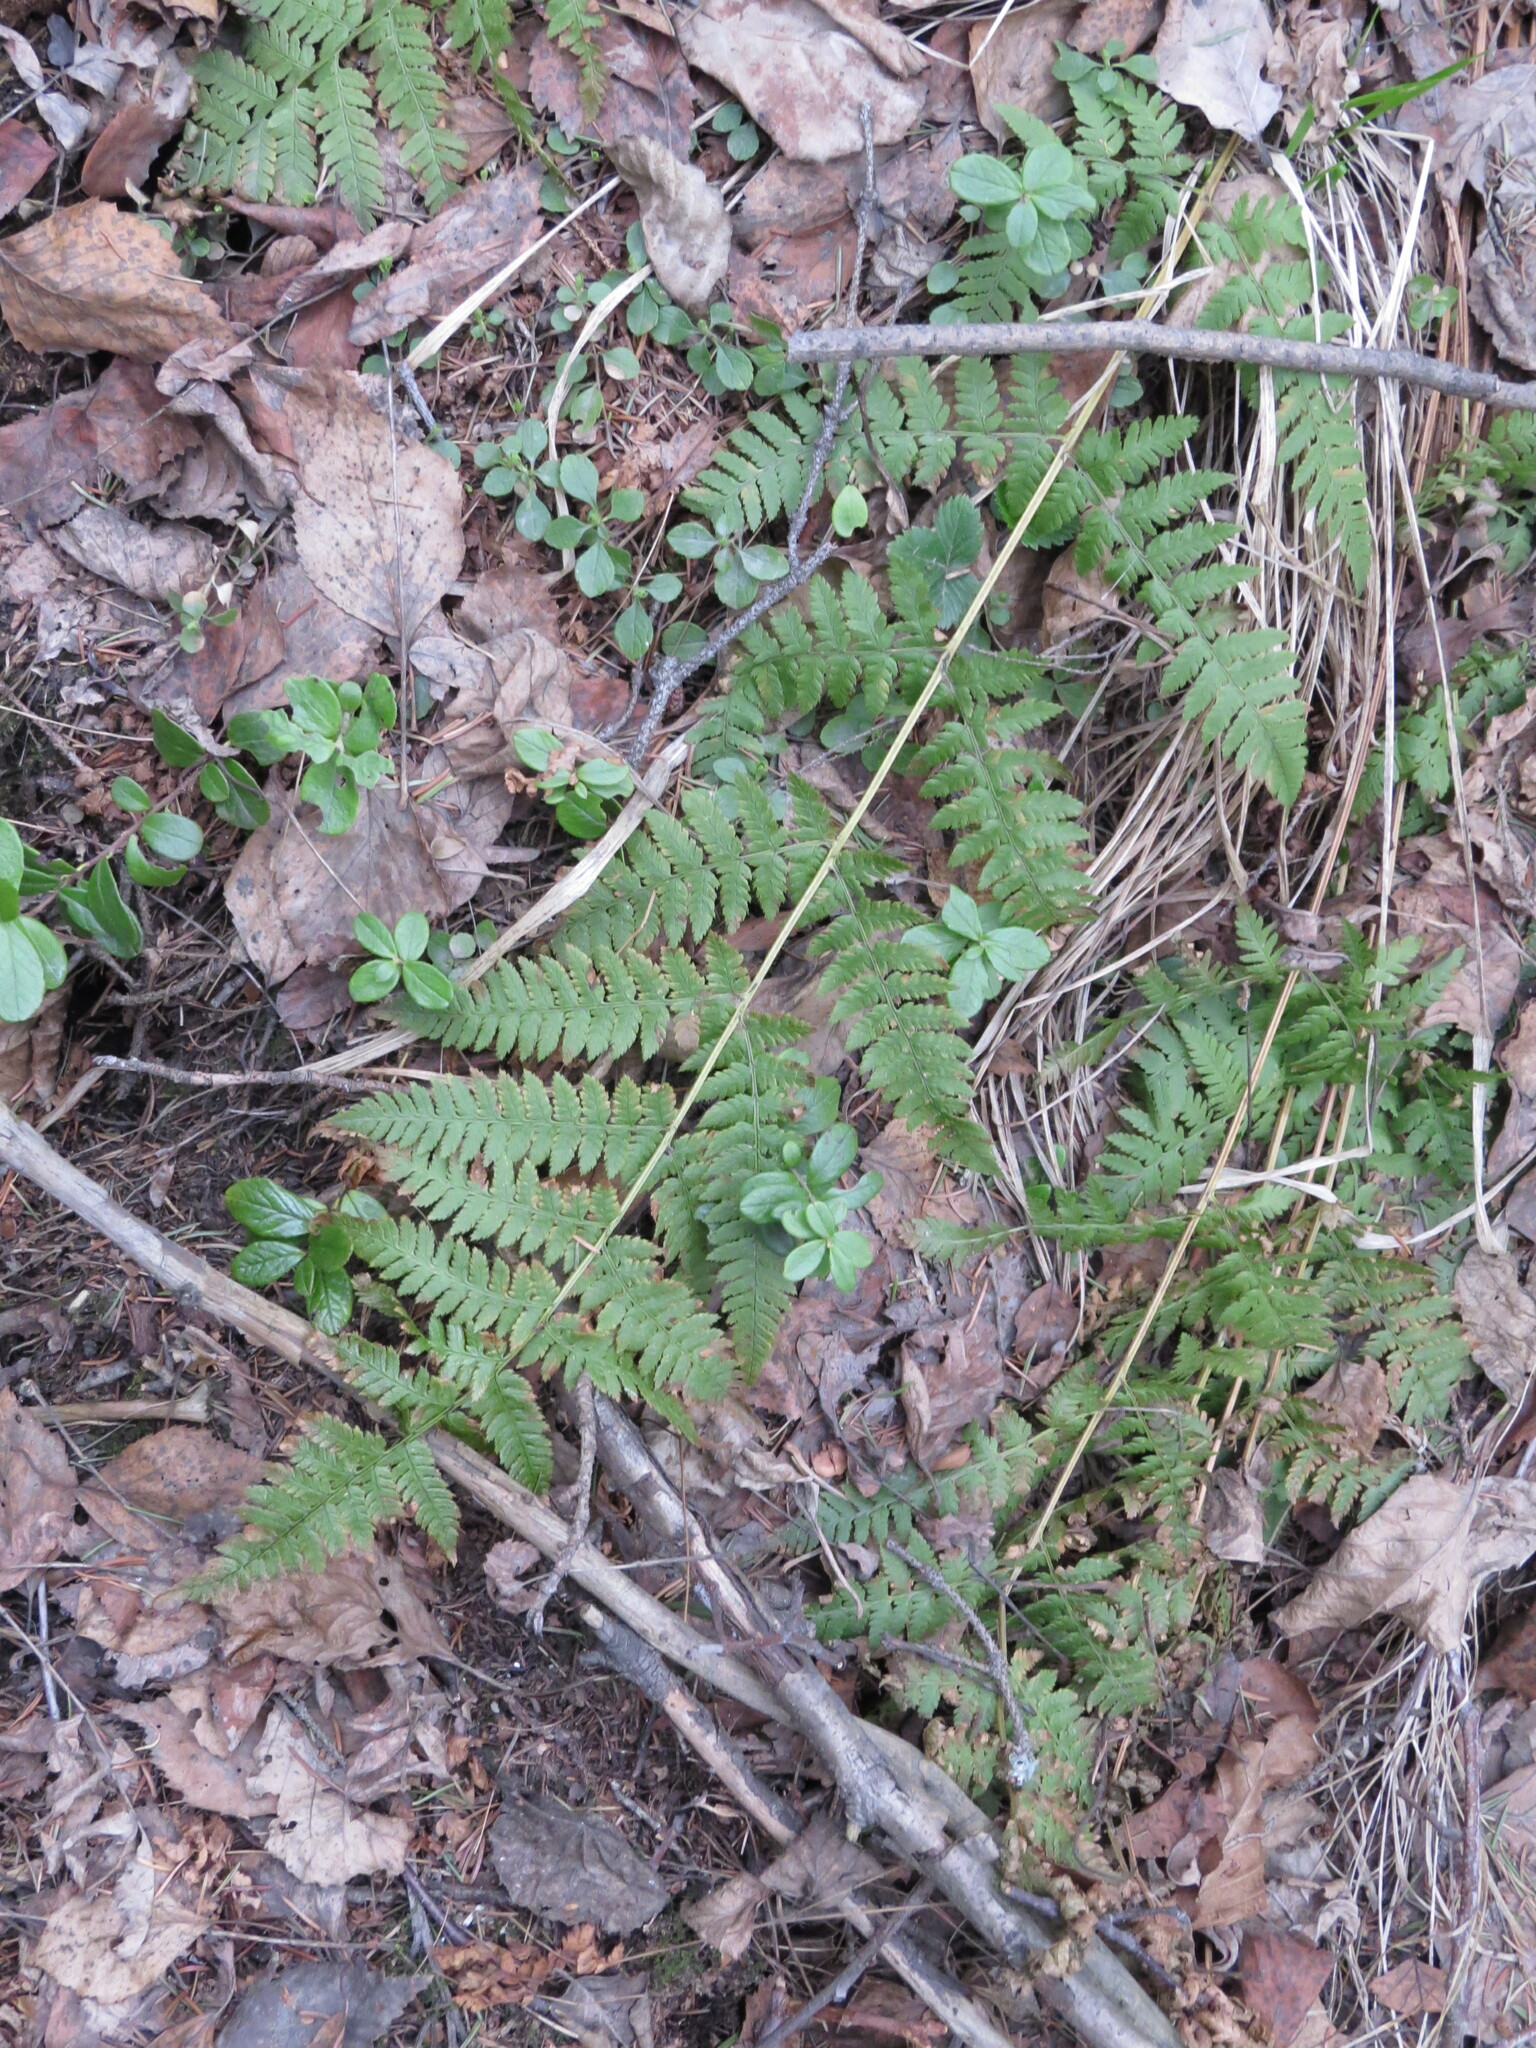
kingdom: Plantae
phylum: Tracheophyta
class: Polypodiopsida
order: Polypodiales
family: Dryopteridaceae
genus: Dryopteris
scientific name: Dryopteris carthusiana
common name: Narrow buckler-fern
